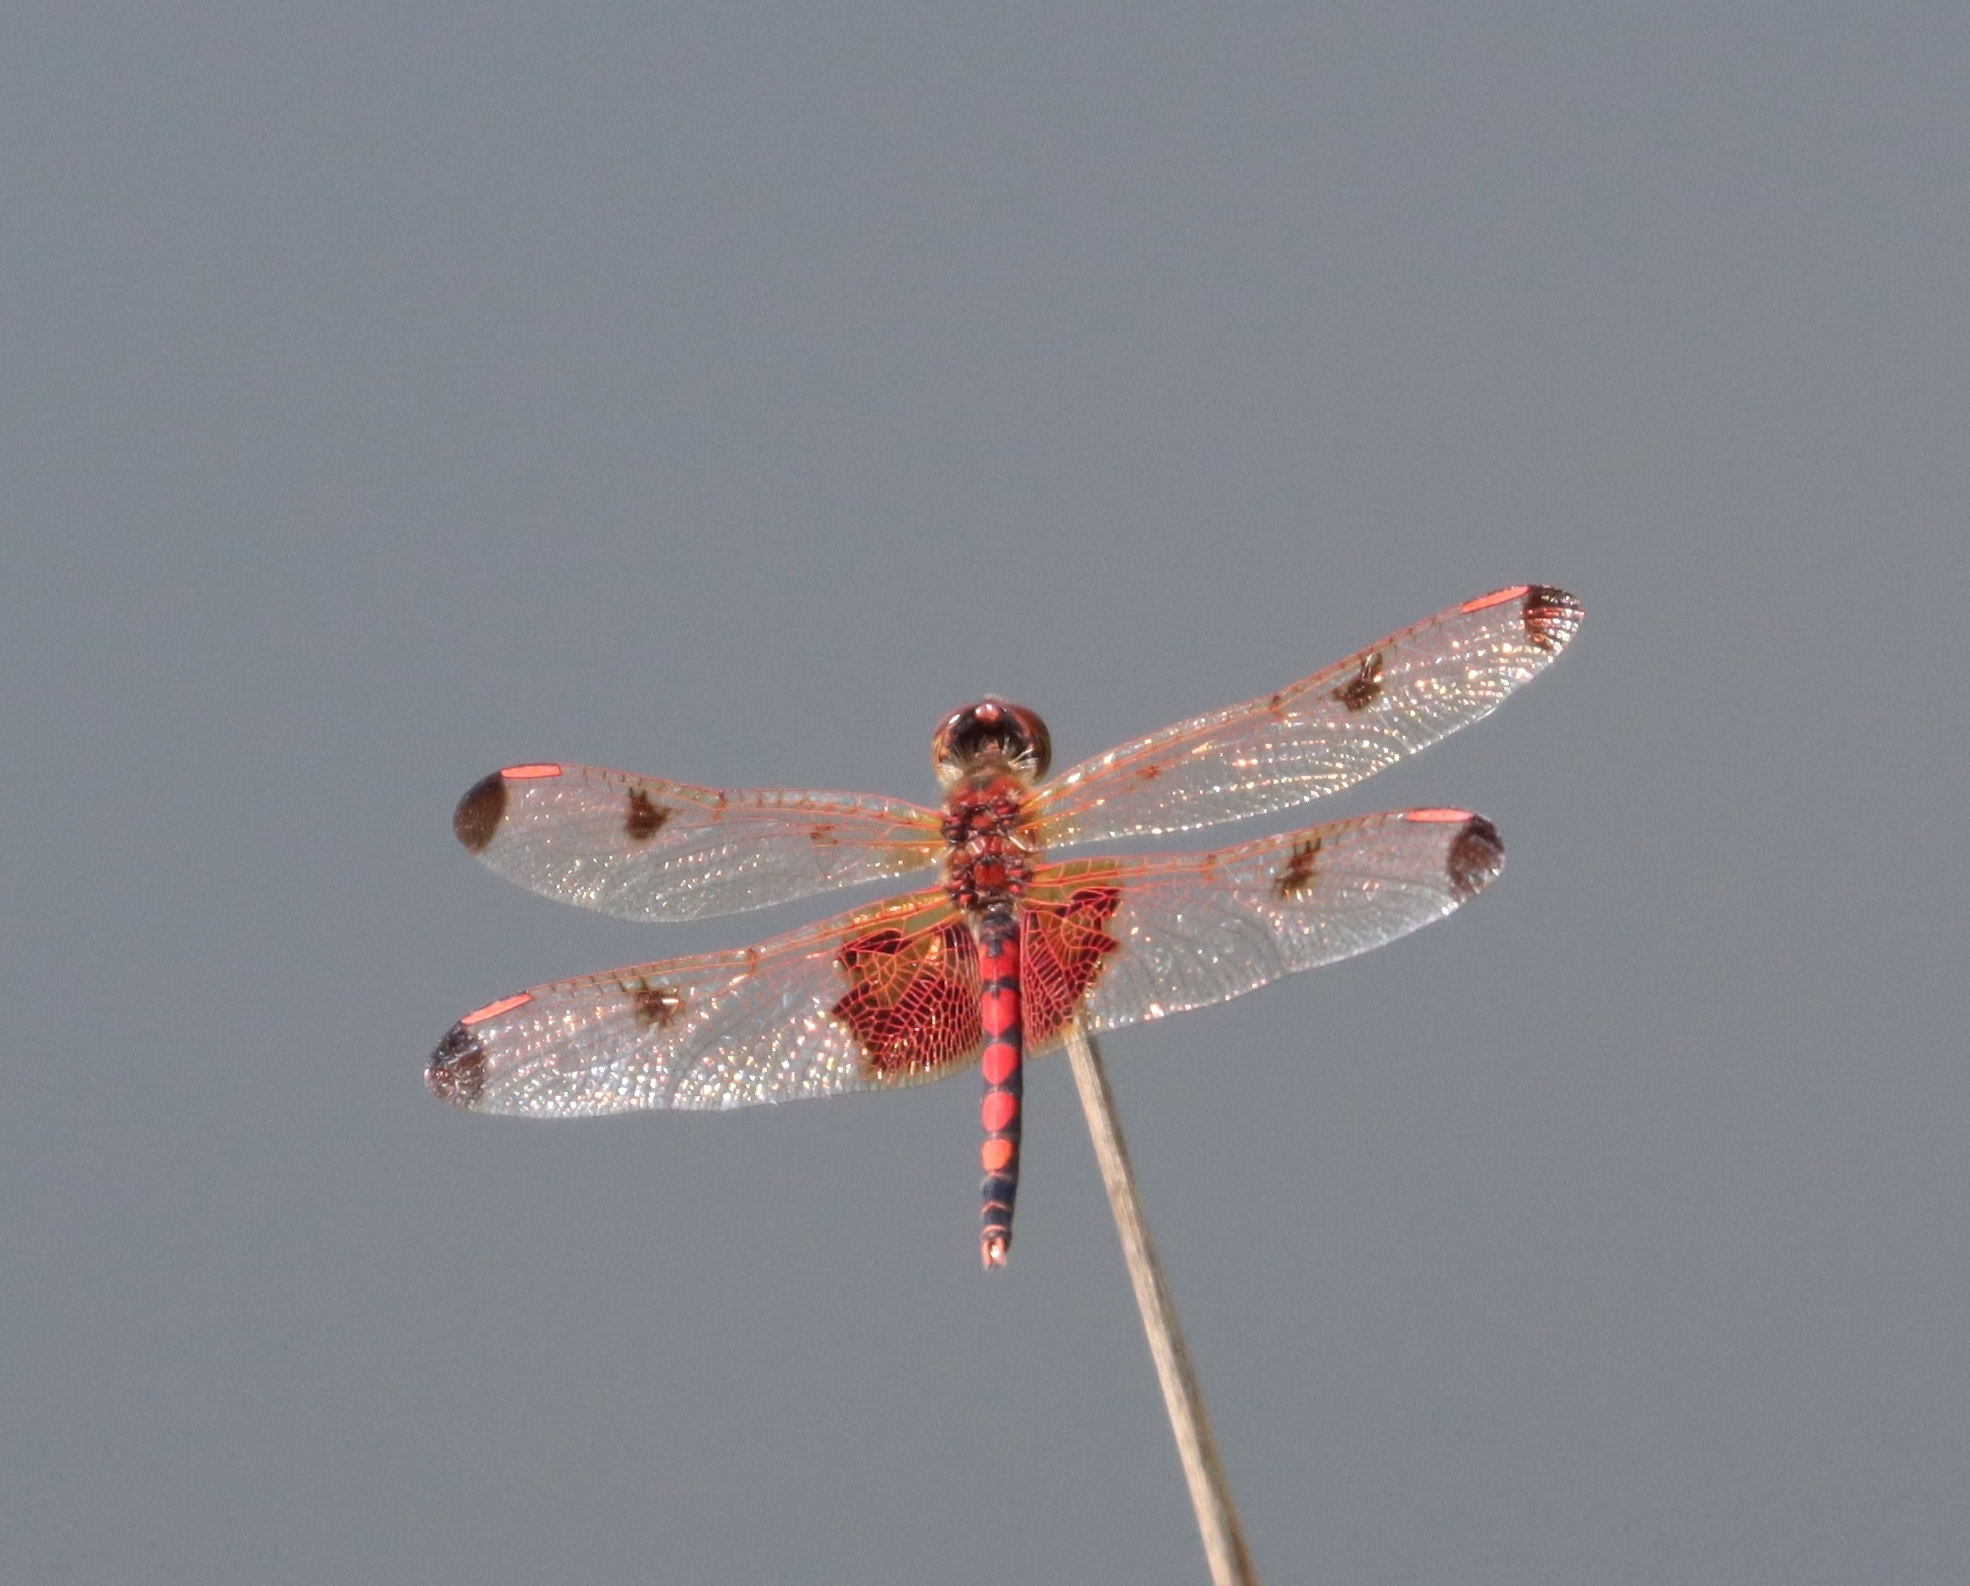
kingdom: Animalia
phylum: Arthropoda
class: Insecta
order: Odonata
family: Libellulidae
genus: Celithemis
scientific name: Celithemis elisa
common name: Calico pennant
